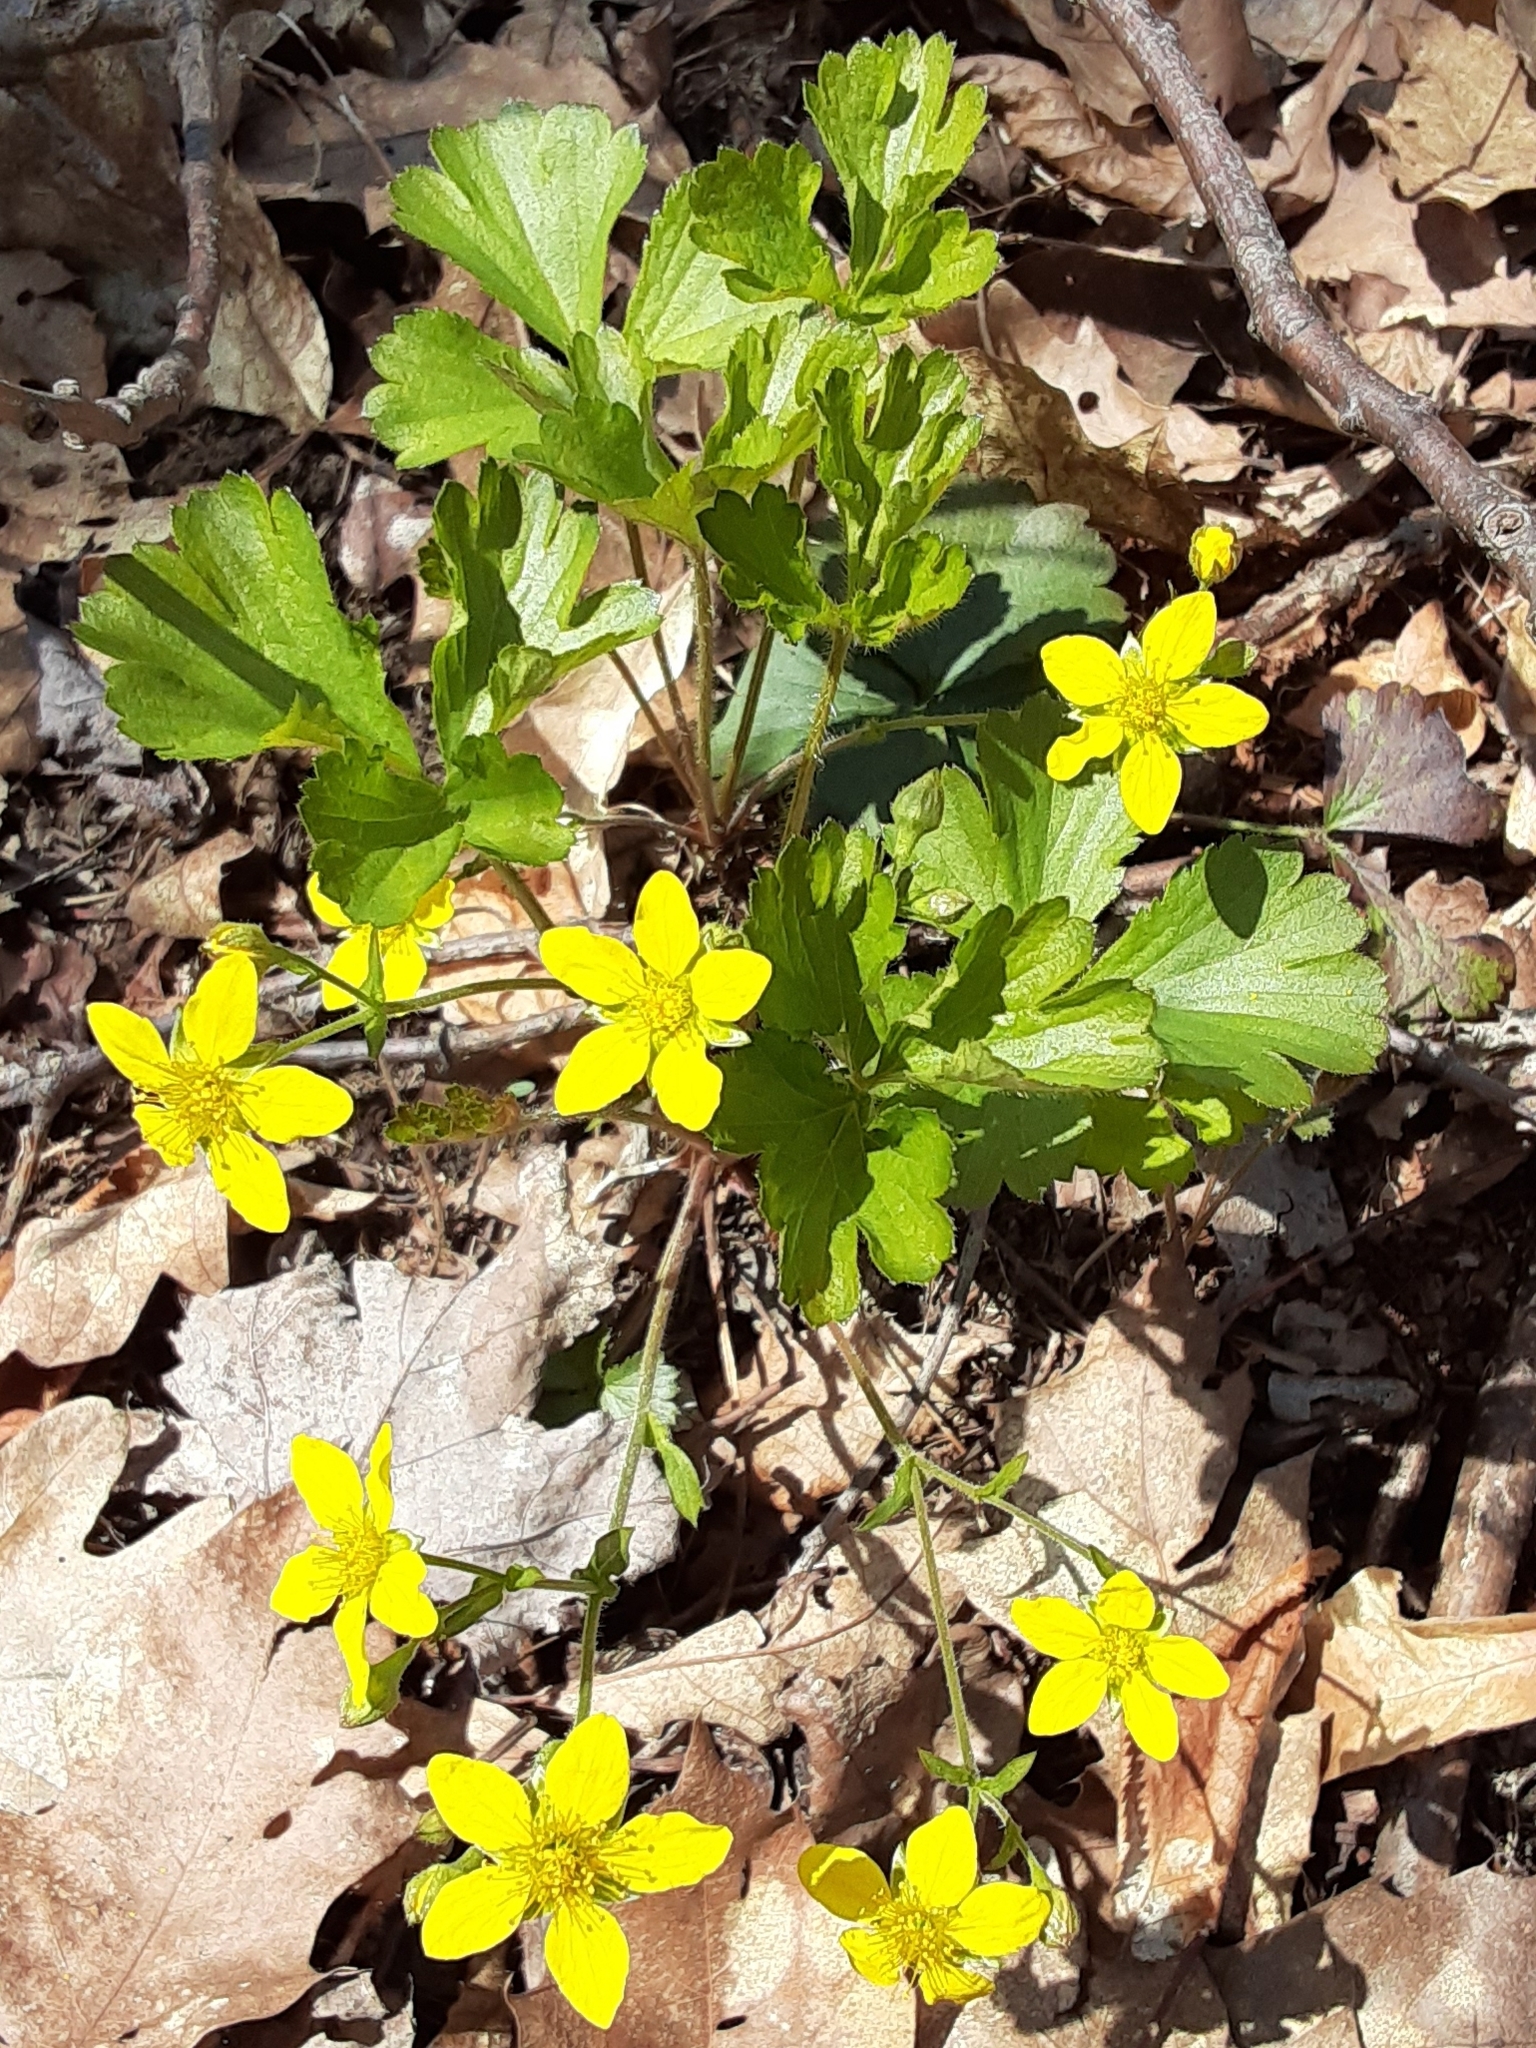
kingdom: Plantae
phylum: Tracheophyta
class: Magnoliopsida
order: Rosales
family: Rosaceae
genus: Geum
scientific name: Geum fragarioides
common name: Appalachian barren strawberry
